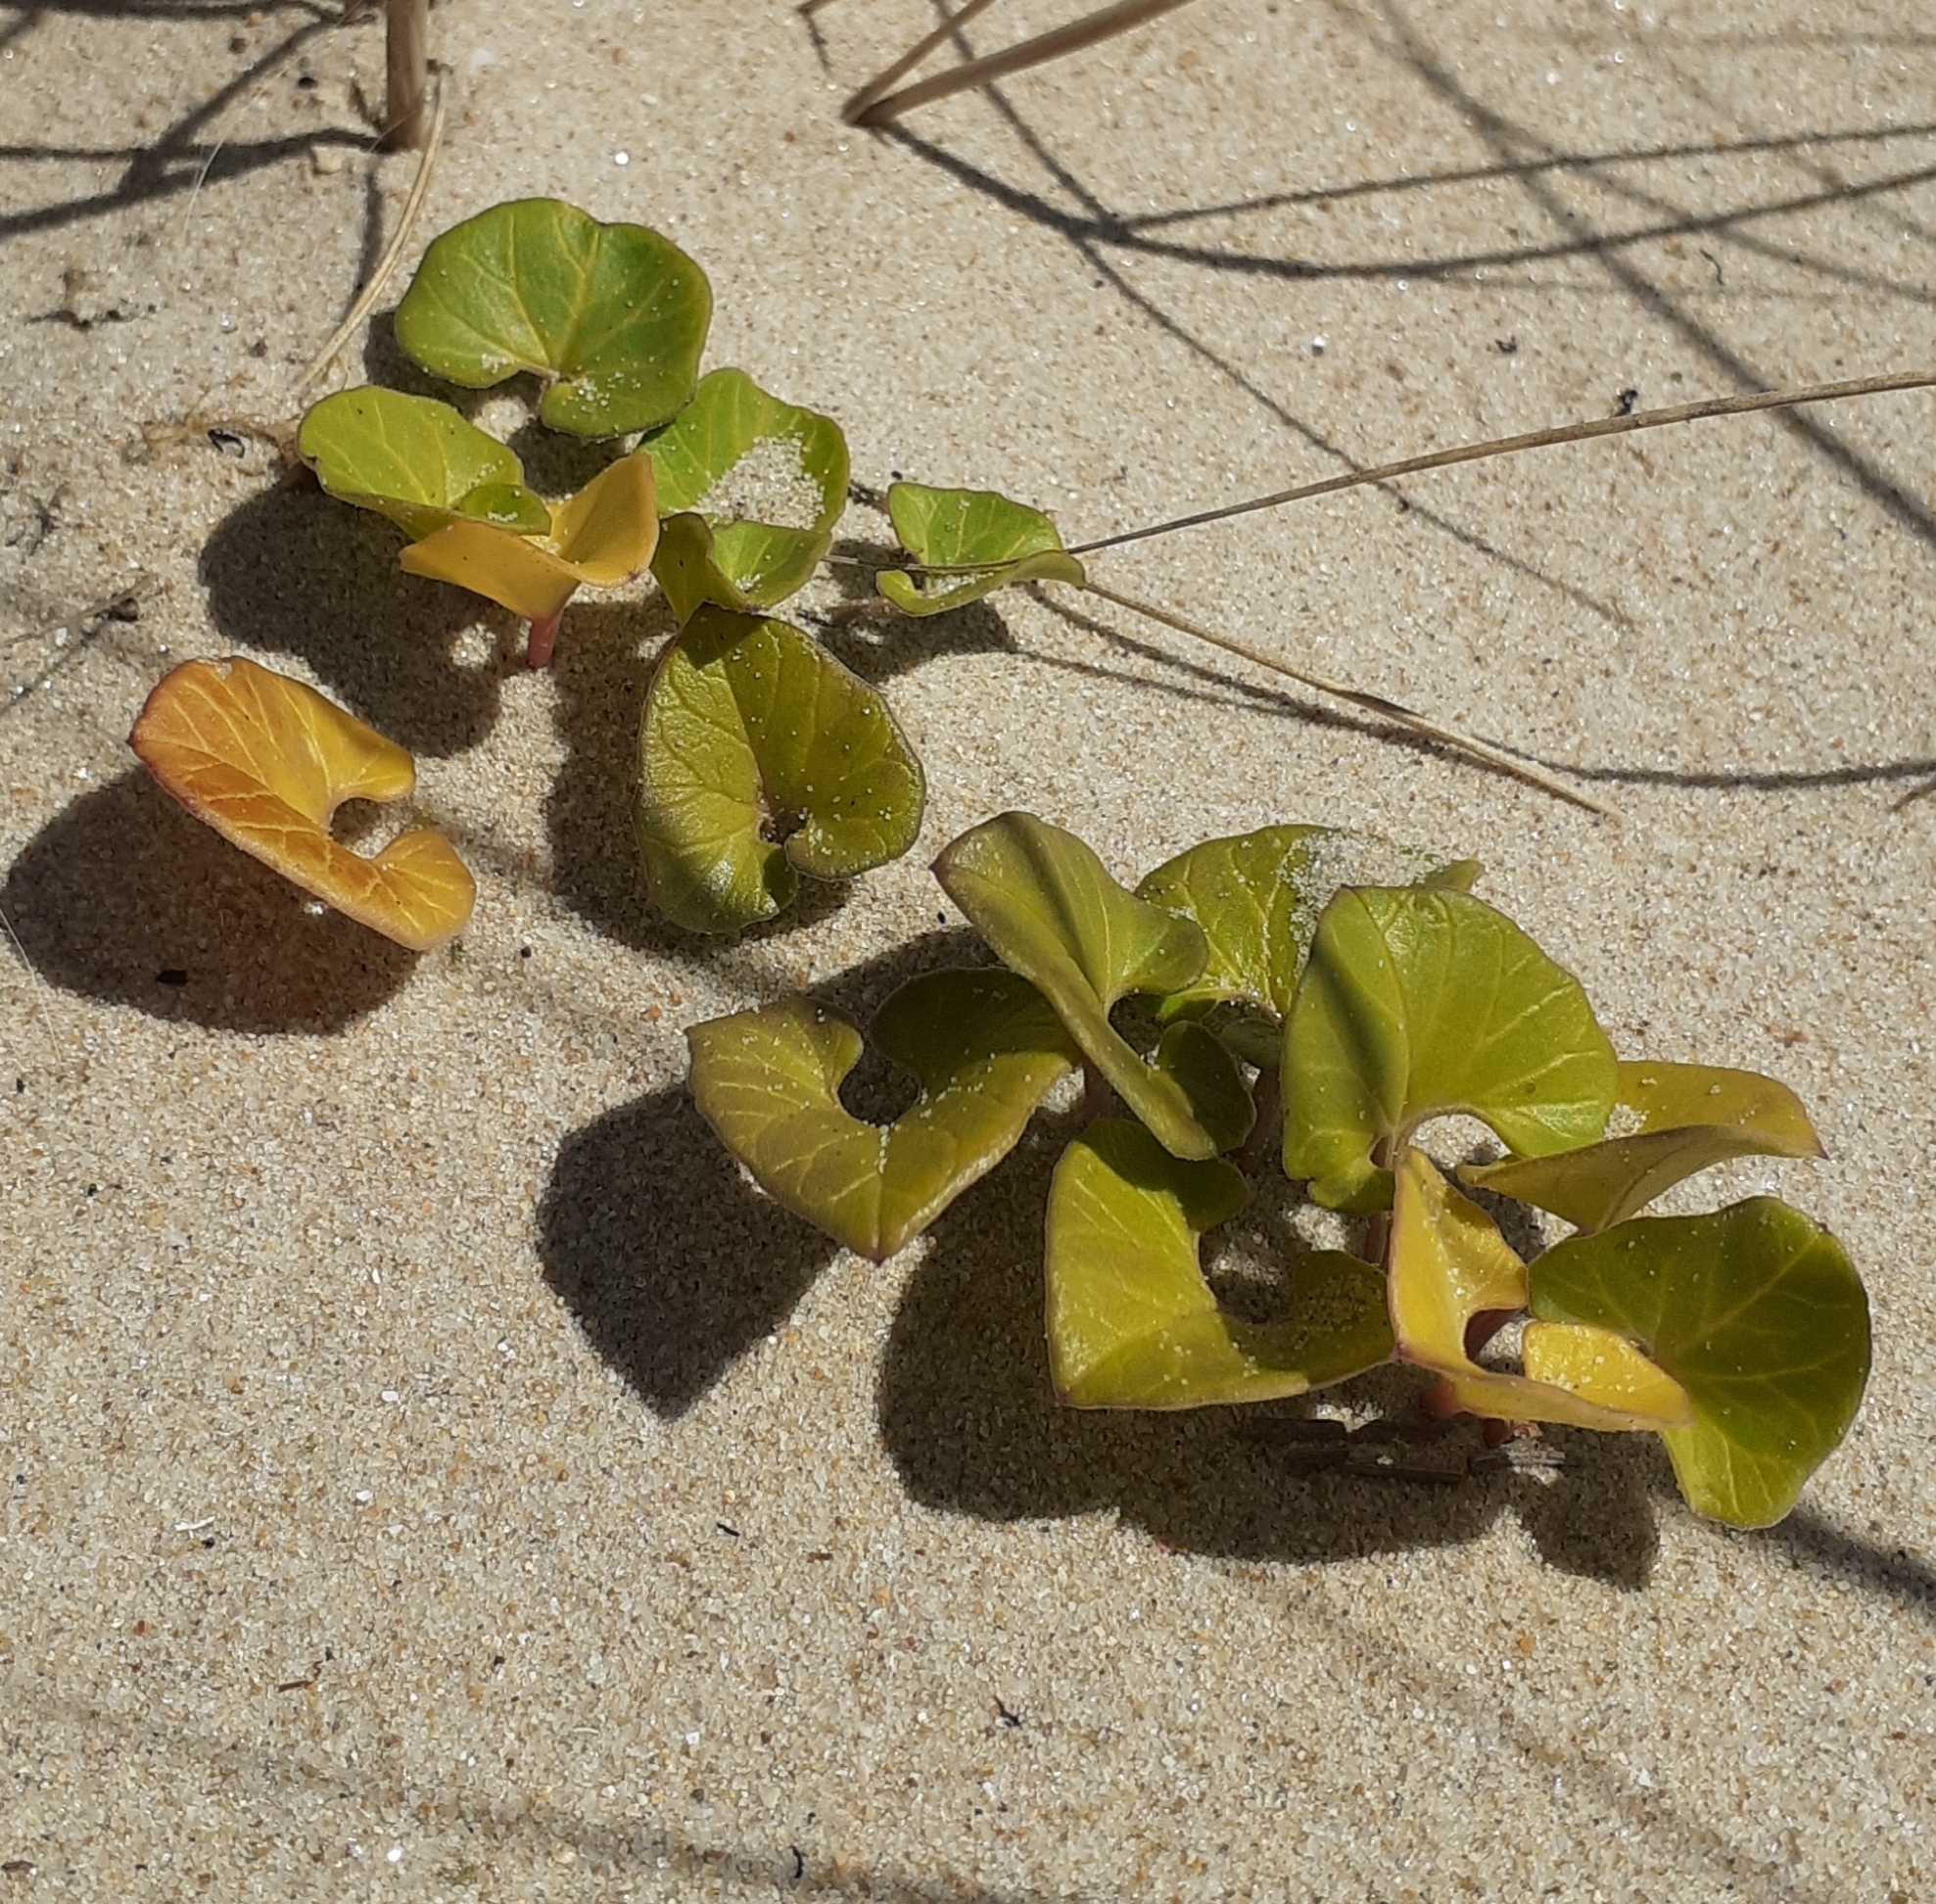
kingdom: Plantae
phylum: Tracheophyta
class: Magnoliopsida
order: Solanales
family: Convolvulaceae
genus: Calystegia
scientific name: Calystegia soldanella
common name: Sea bindweed
